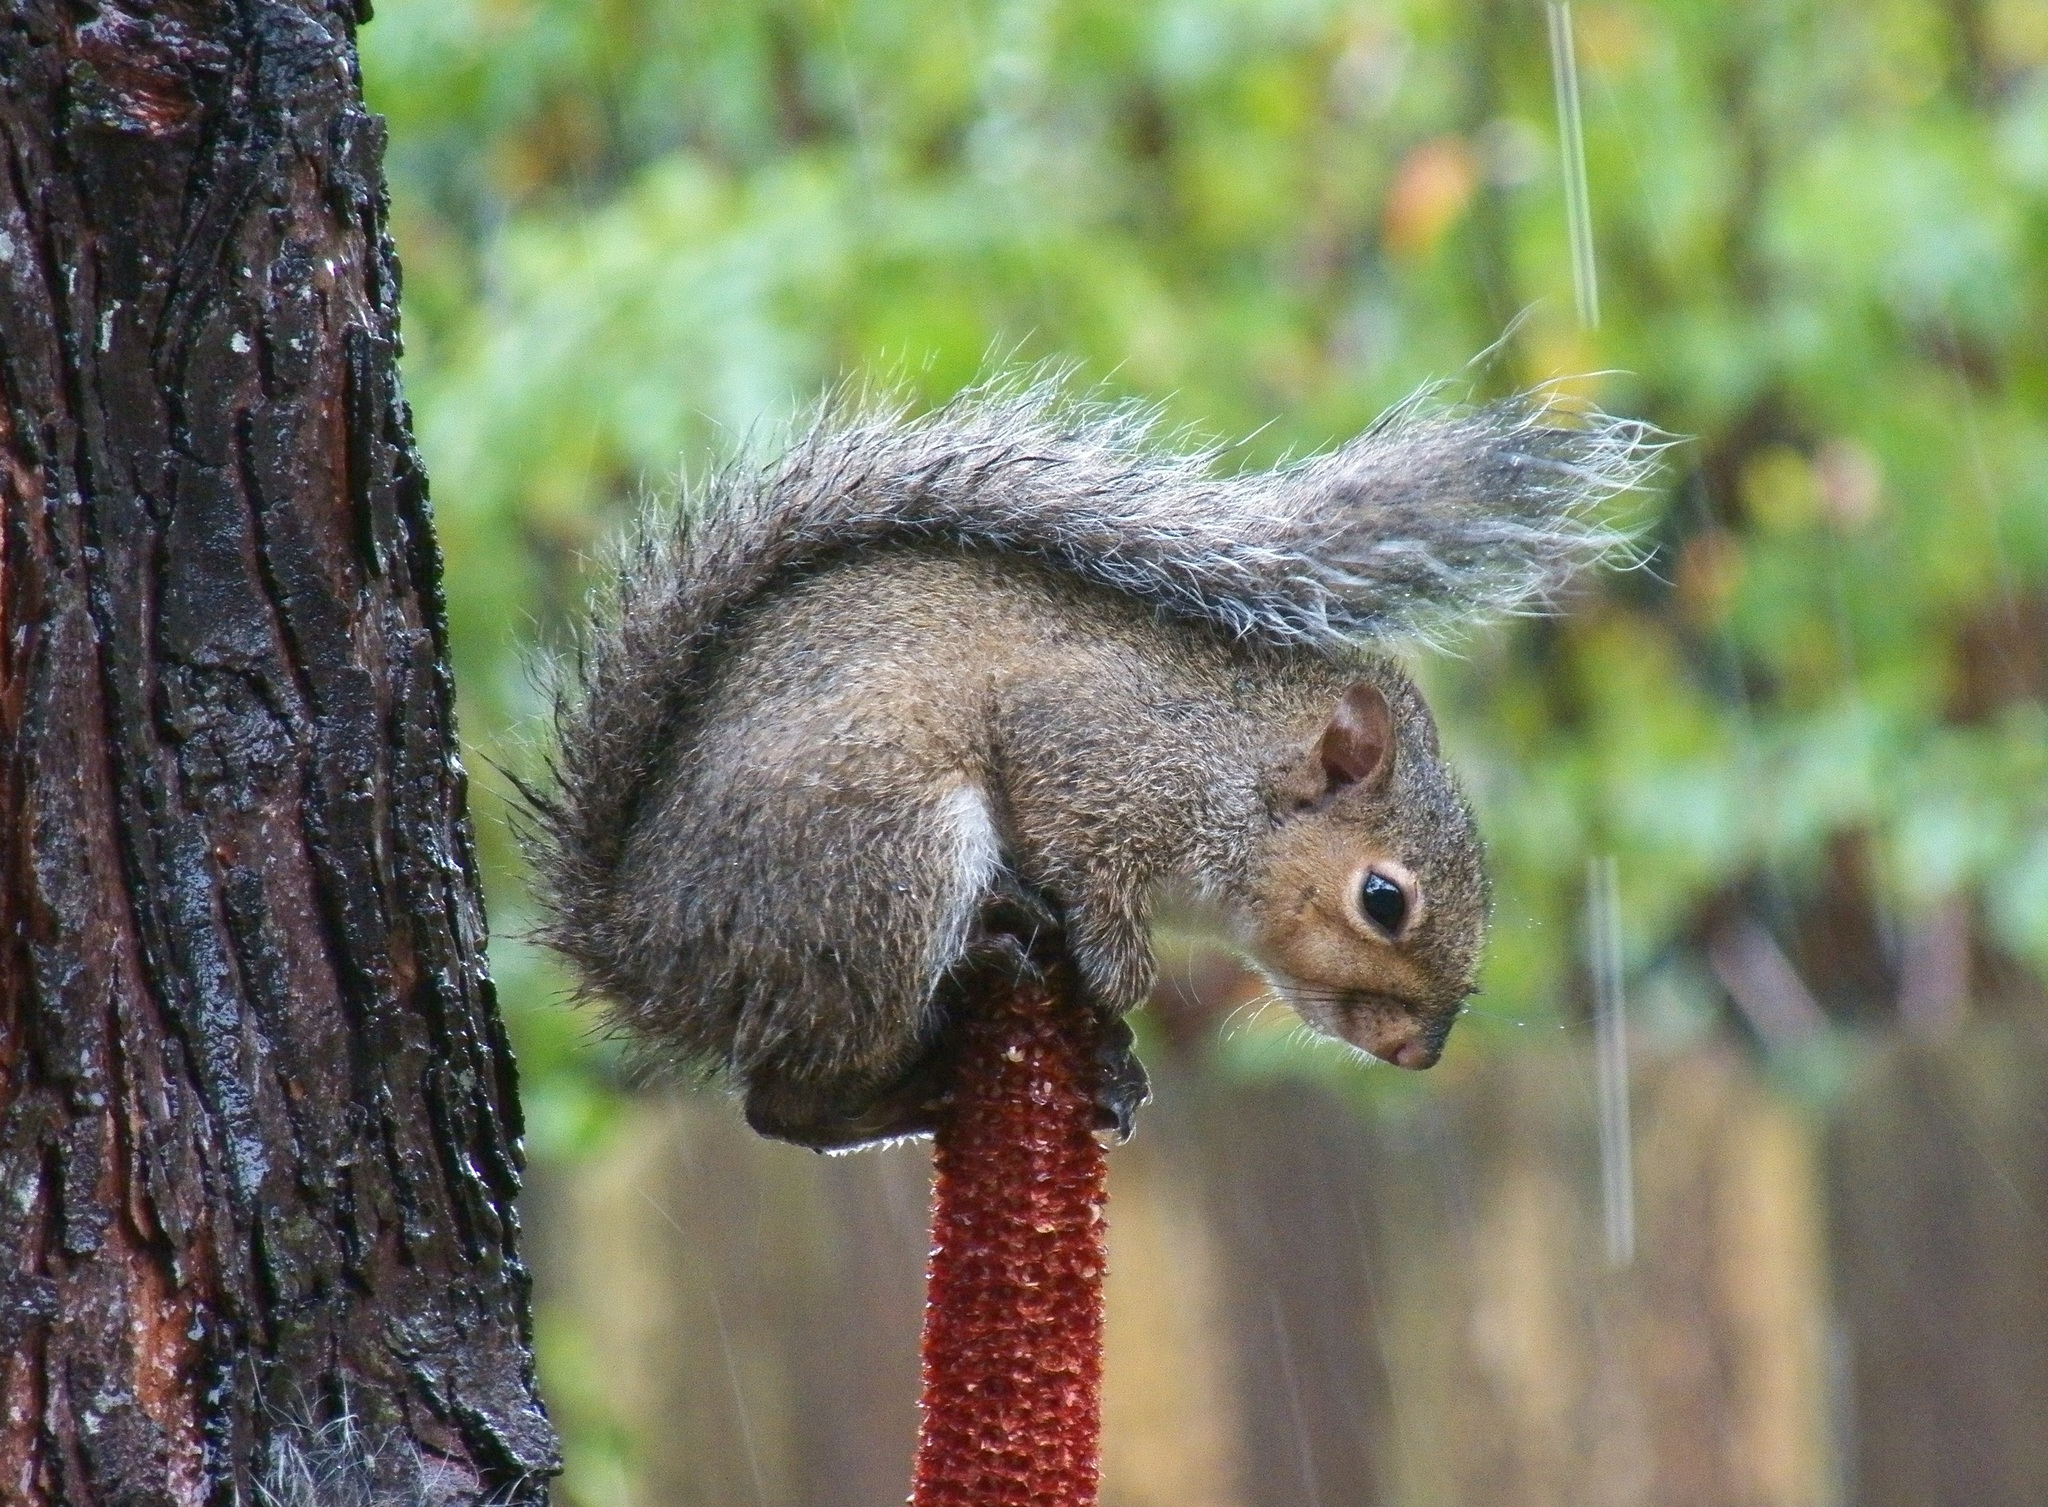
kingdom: Animalia
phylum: Chordata
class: Mammalia
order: Rodentia
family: Sciuridae
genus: Sciurus
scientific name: Sciurus carolinensis
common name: Eastern gray squirrel
